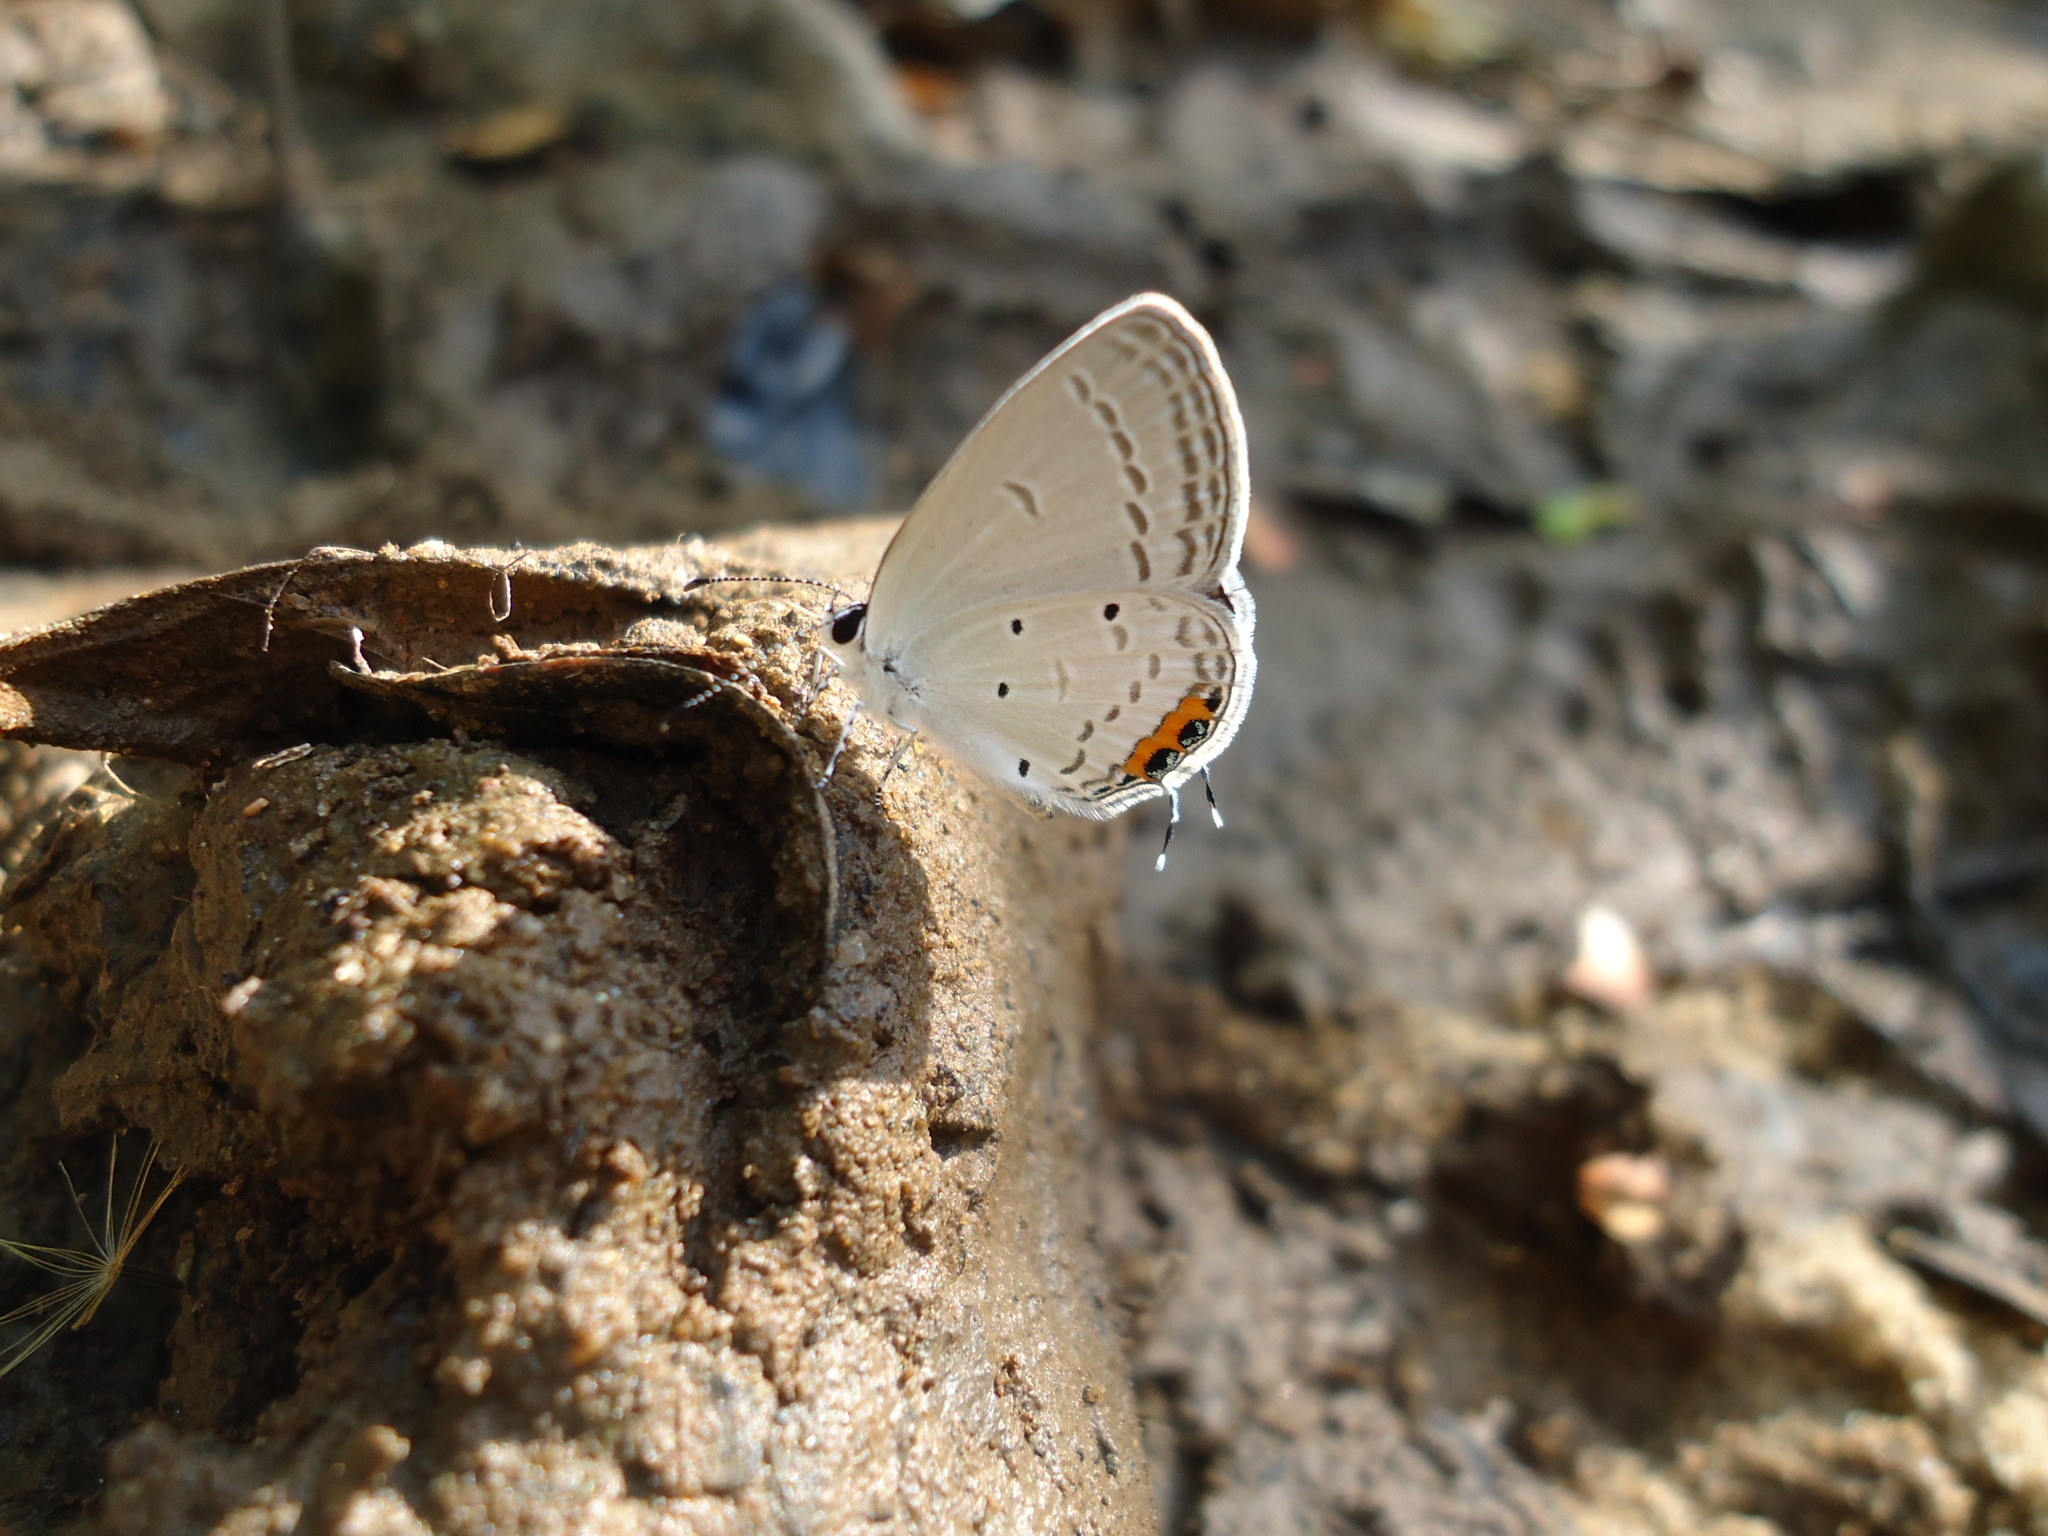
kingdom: Animalia
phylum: Arthropoda
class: Insecta
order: Lepidoptera
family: Lycaenidae
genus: Everes
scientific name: Everes lacturnus
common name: Orange-tipped pea-blue
